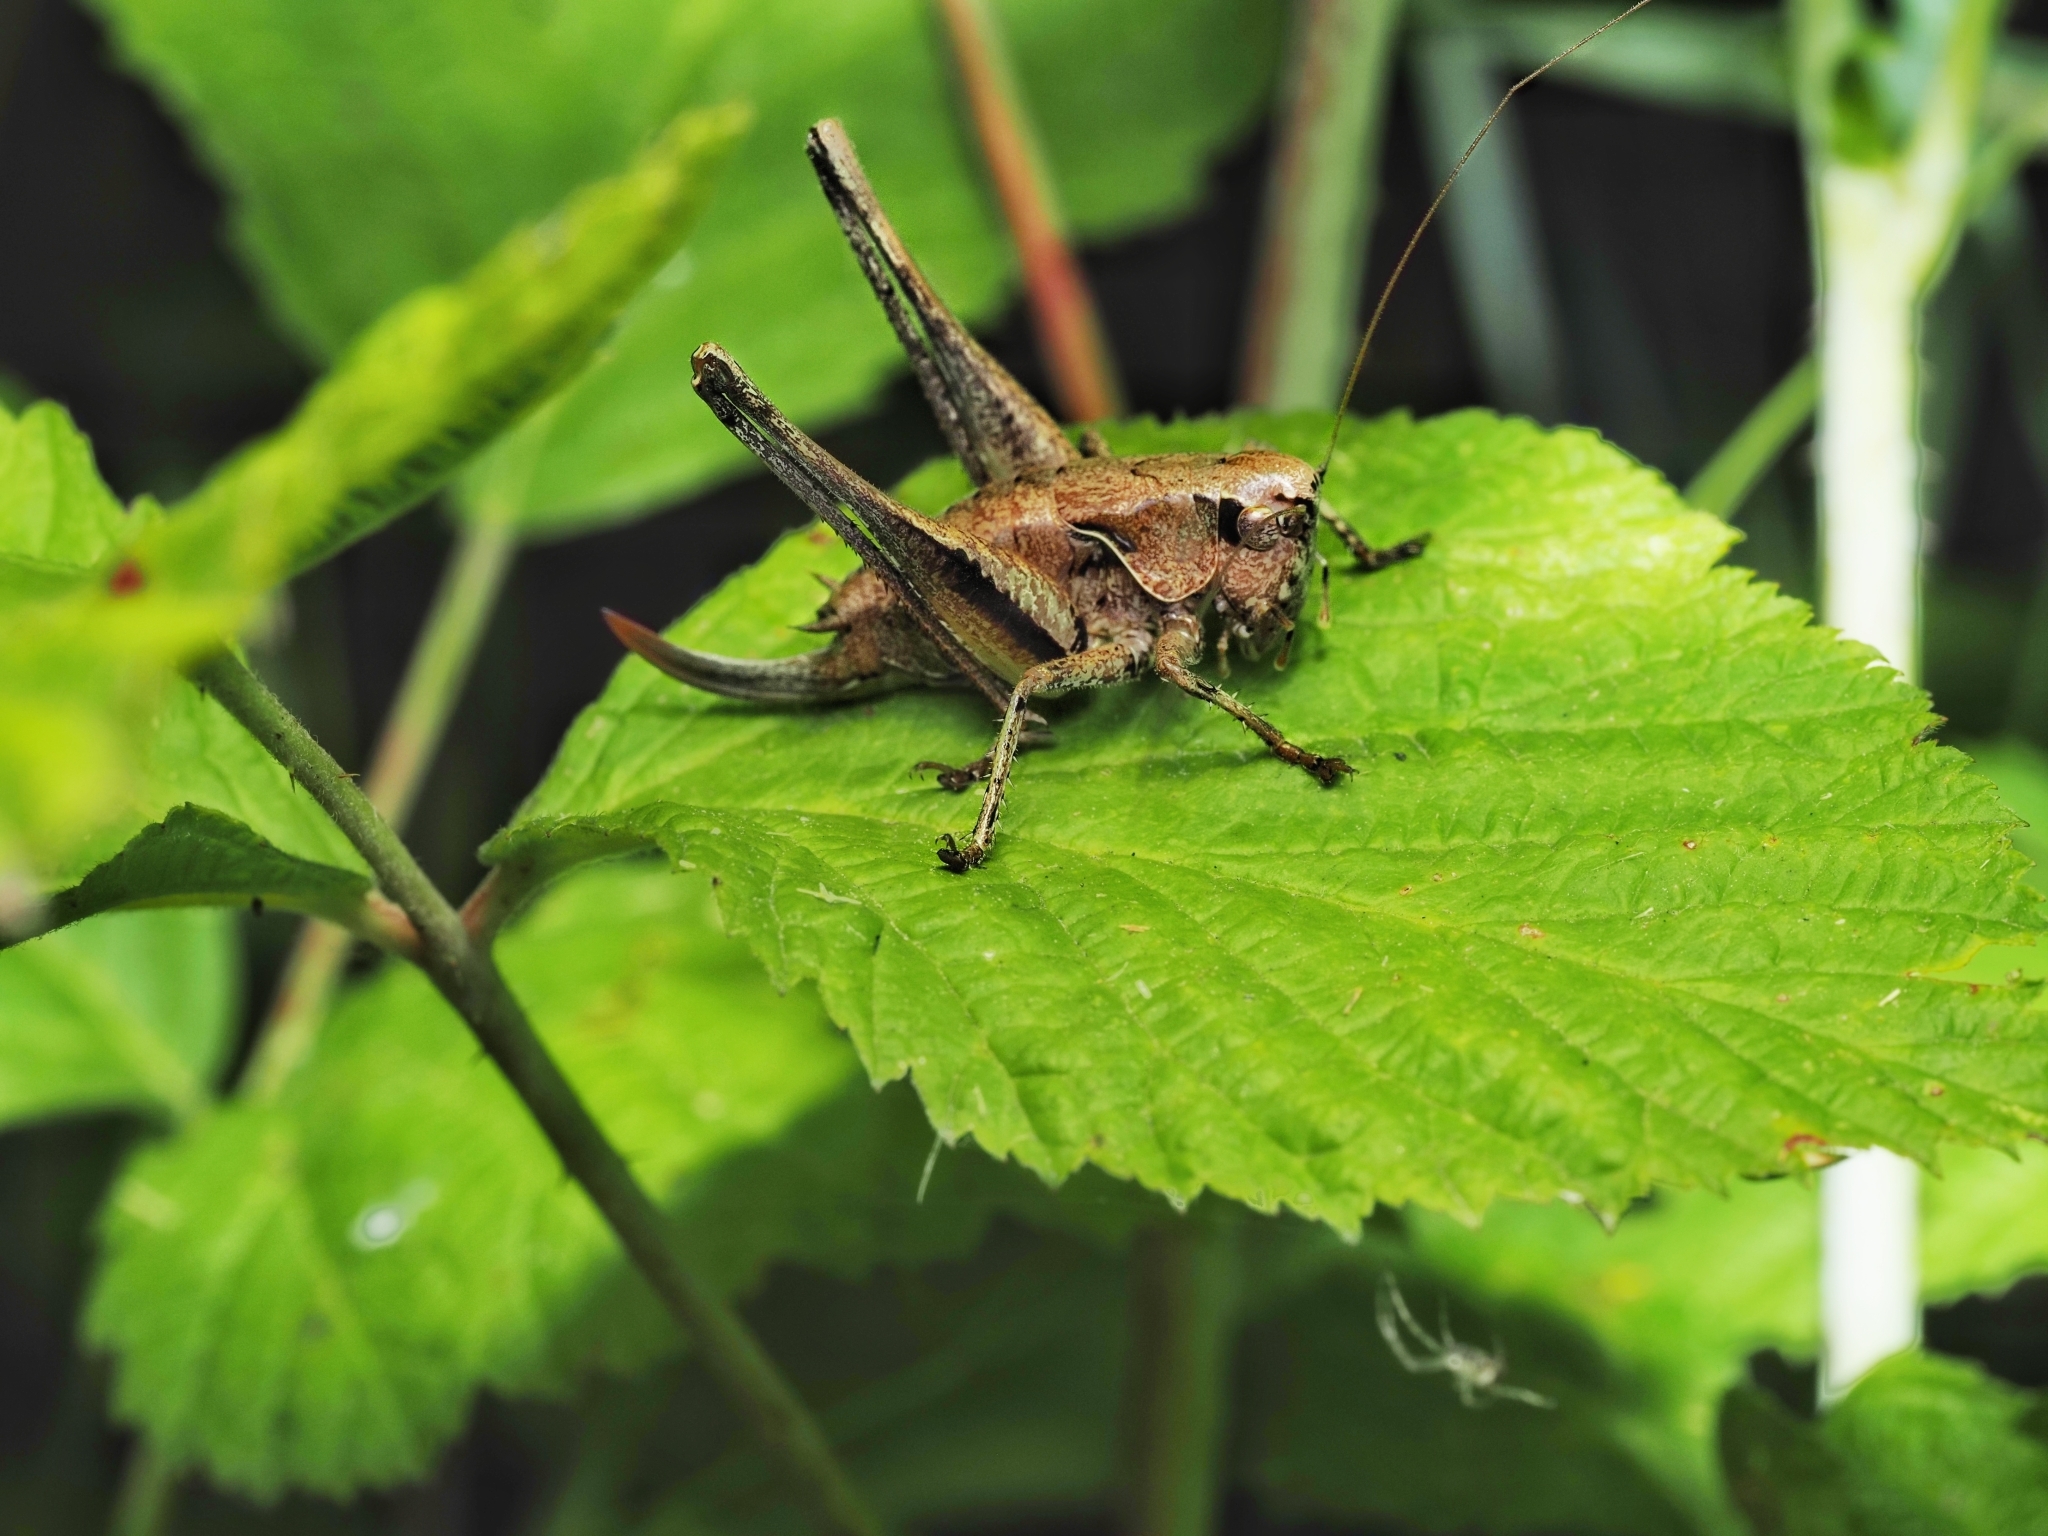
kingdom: Animalia
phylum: Arthropoda
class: Insecta
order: Orthoptera
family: Tettigoniidae
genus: Pholidoptera
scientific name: Pholidoptera griseoaptera
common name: Dark bush-cricket
